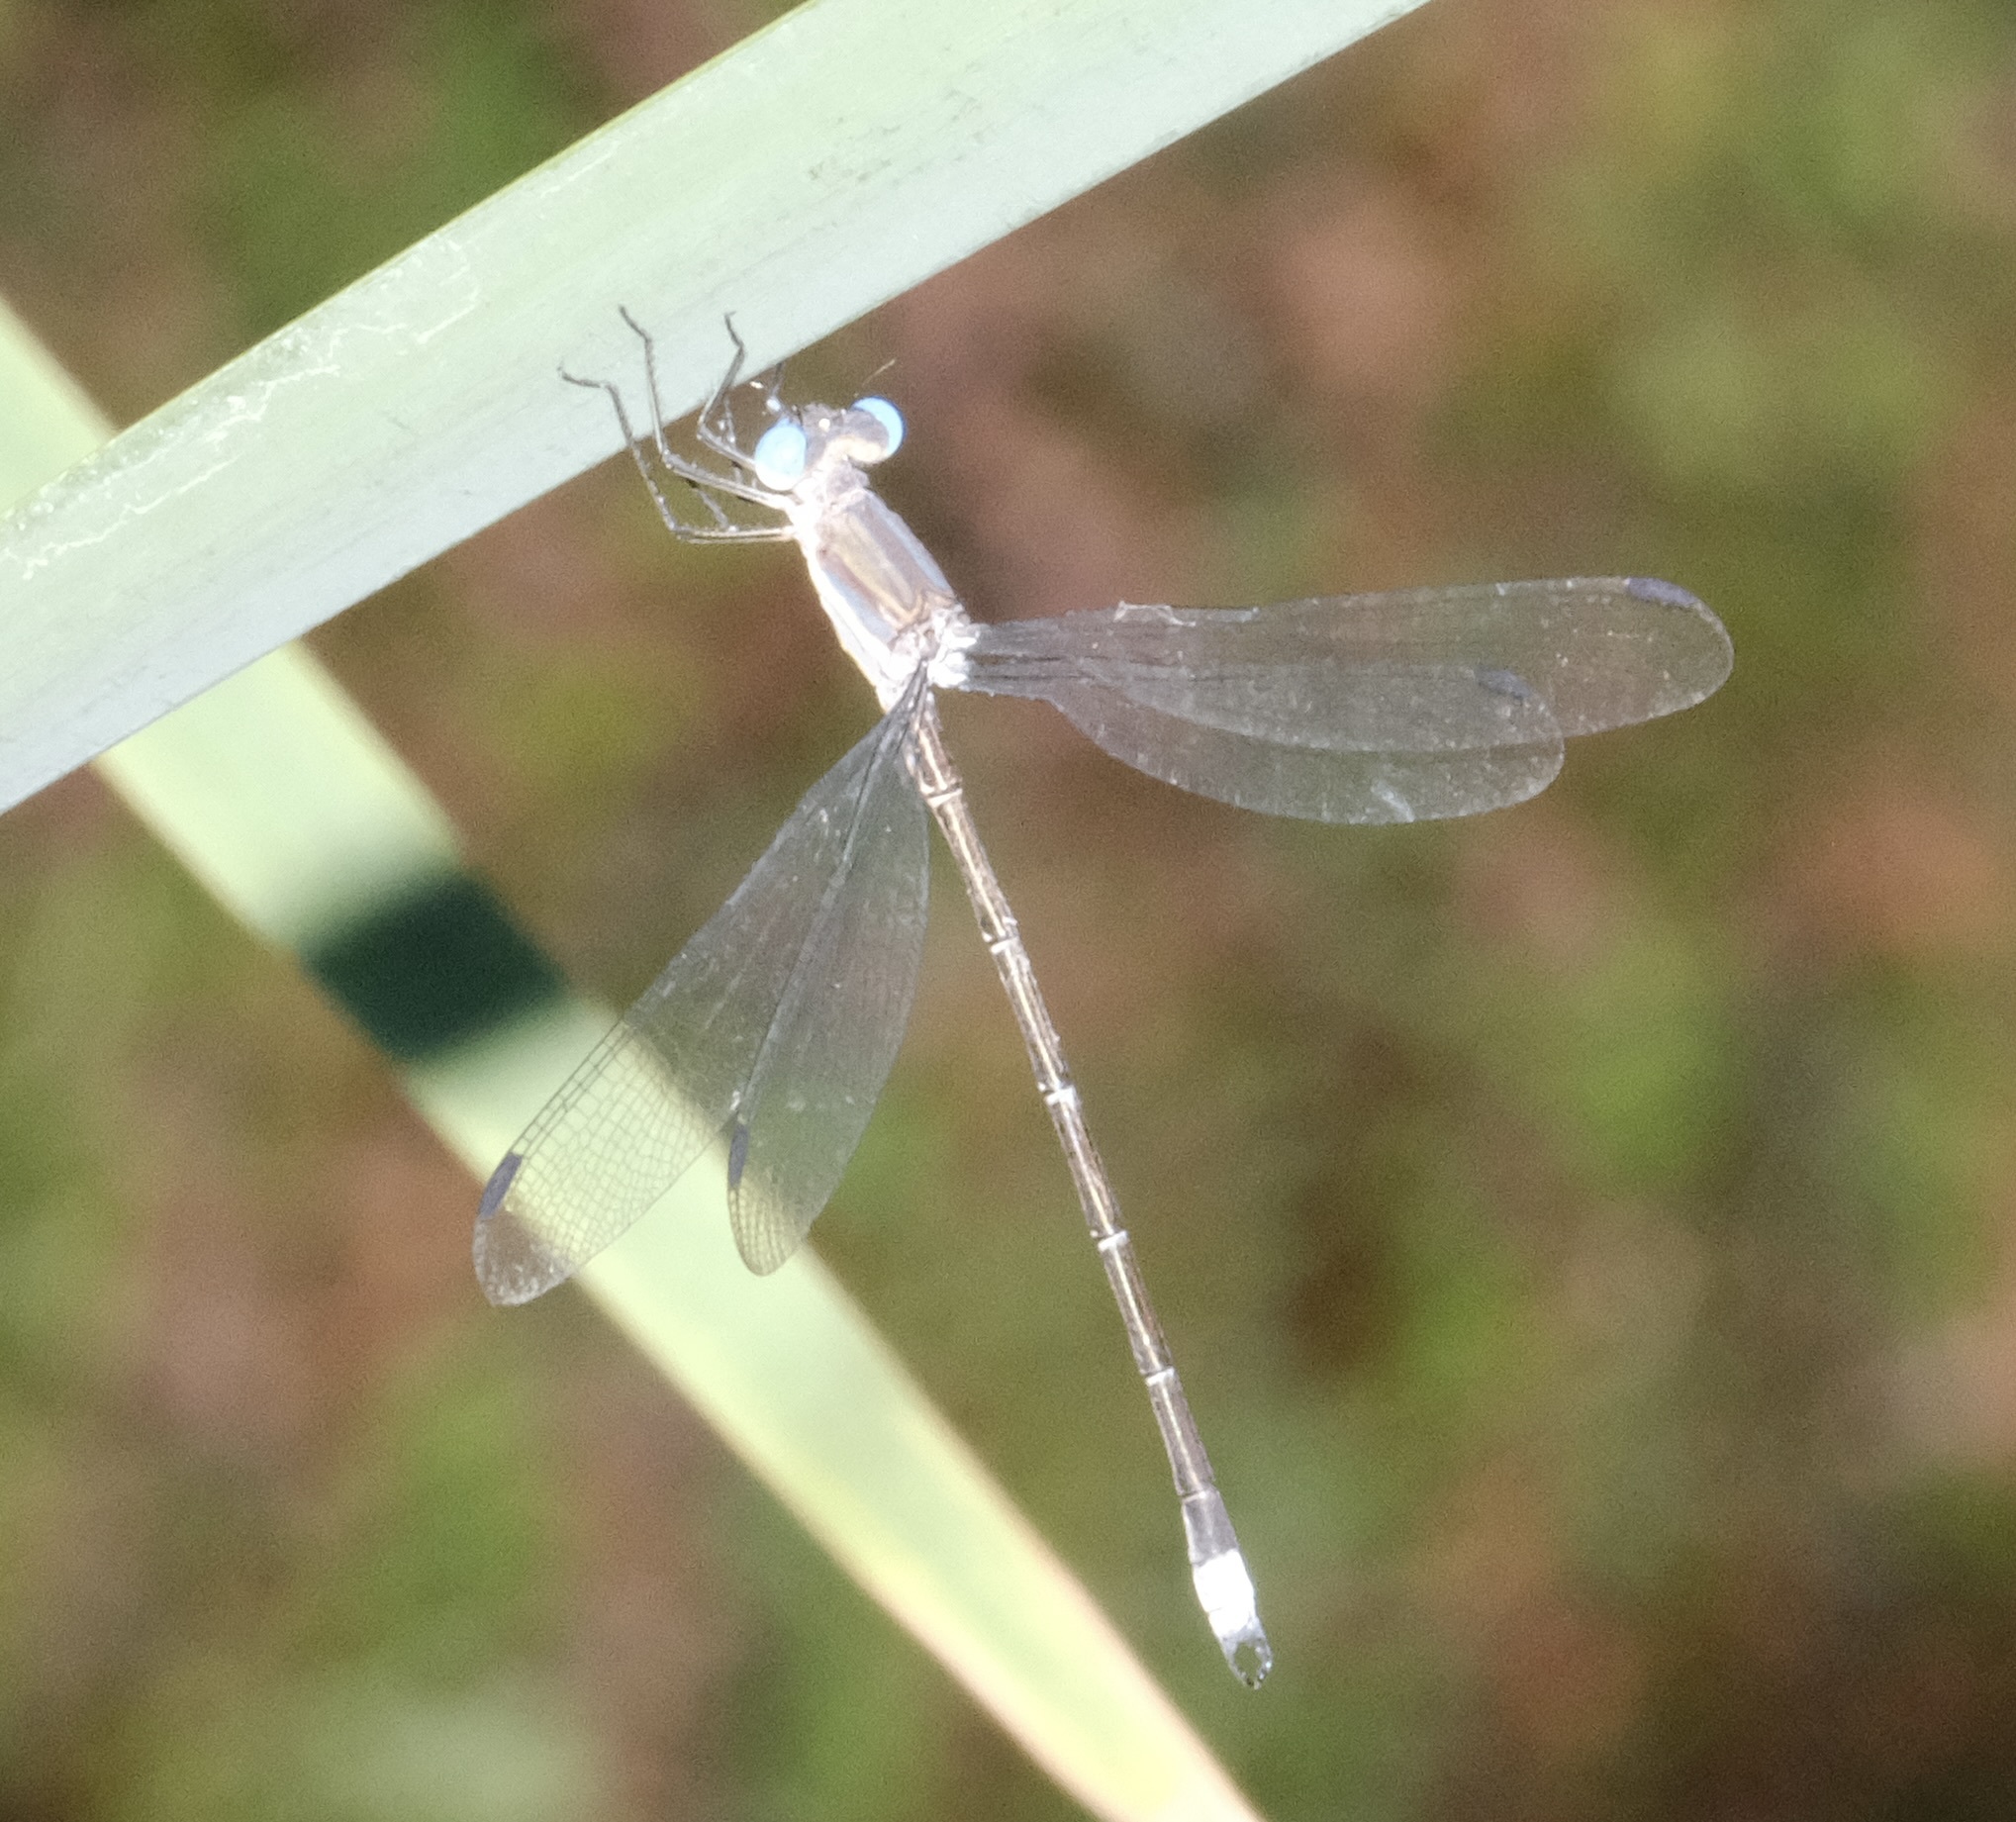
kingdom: Animalia
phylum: Arthropoda
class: Insecta
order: Odonata
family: Lestidae
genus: Archilestes
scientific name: Archilestes grandis
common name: Great spreadwing
